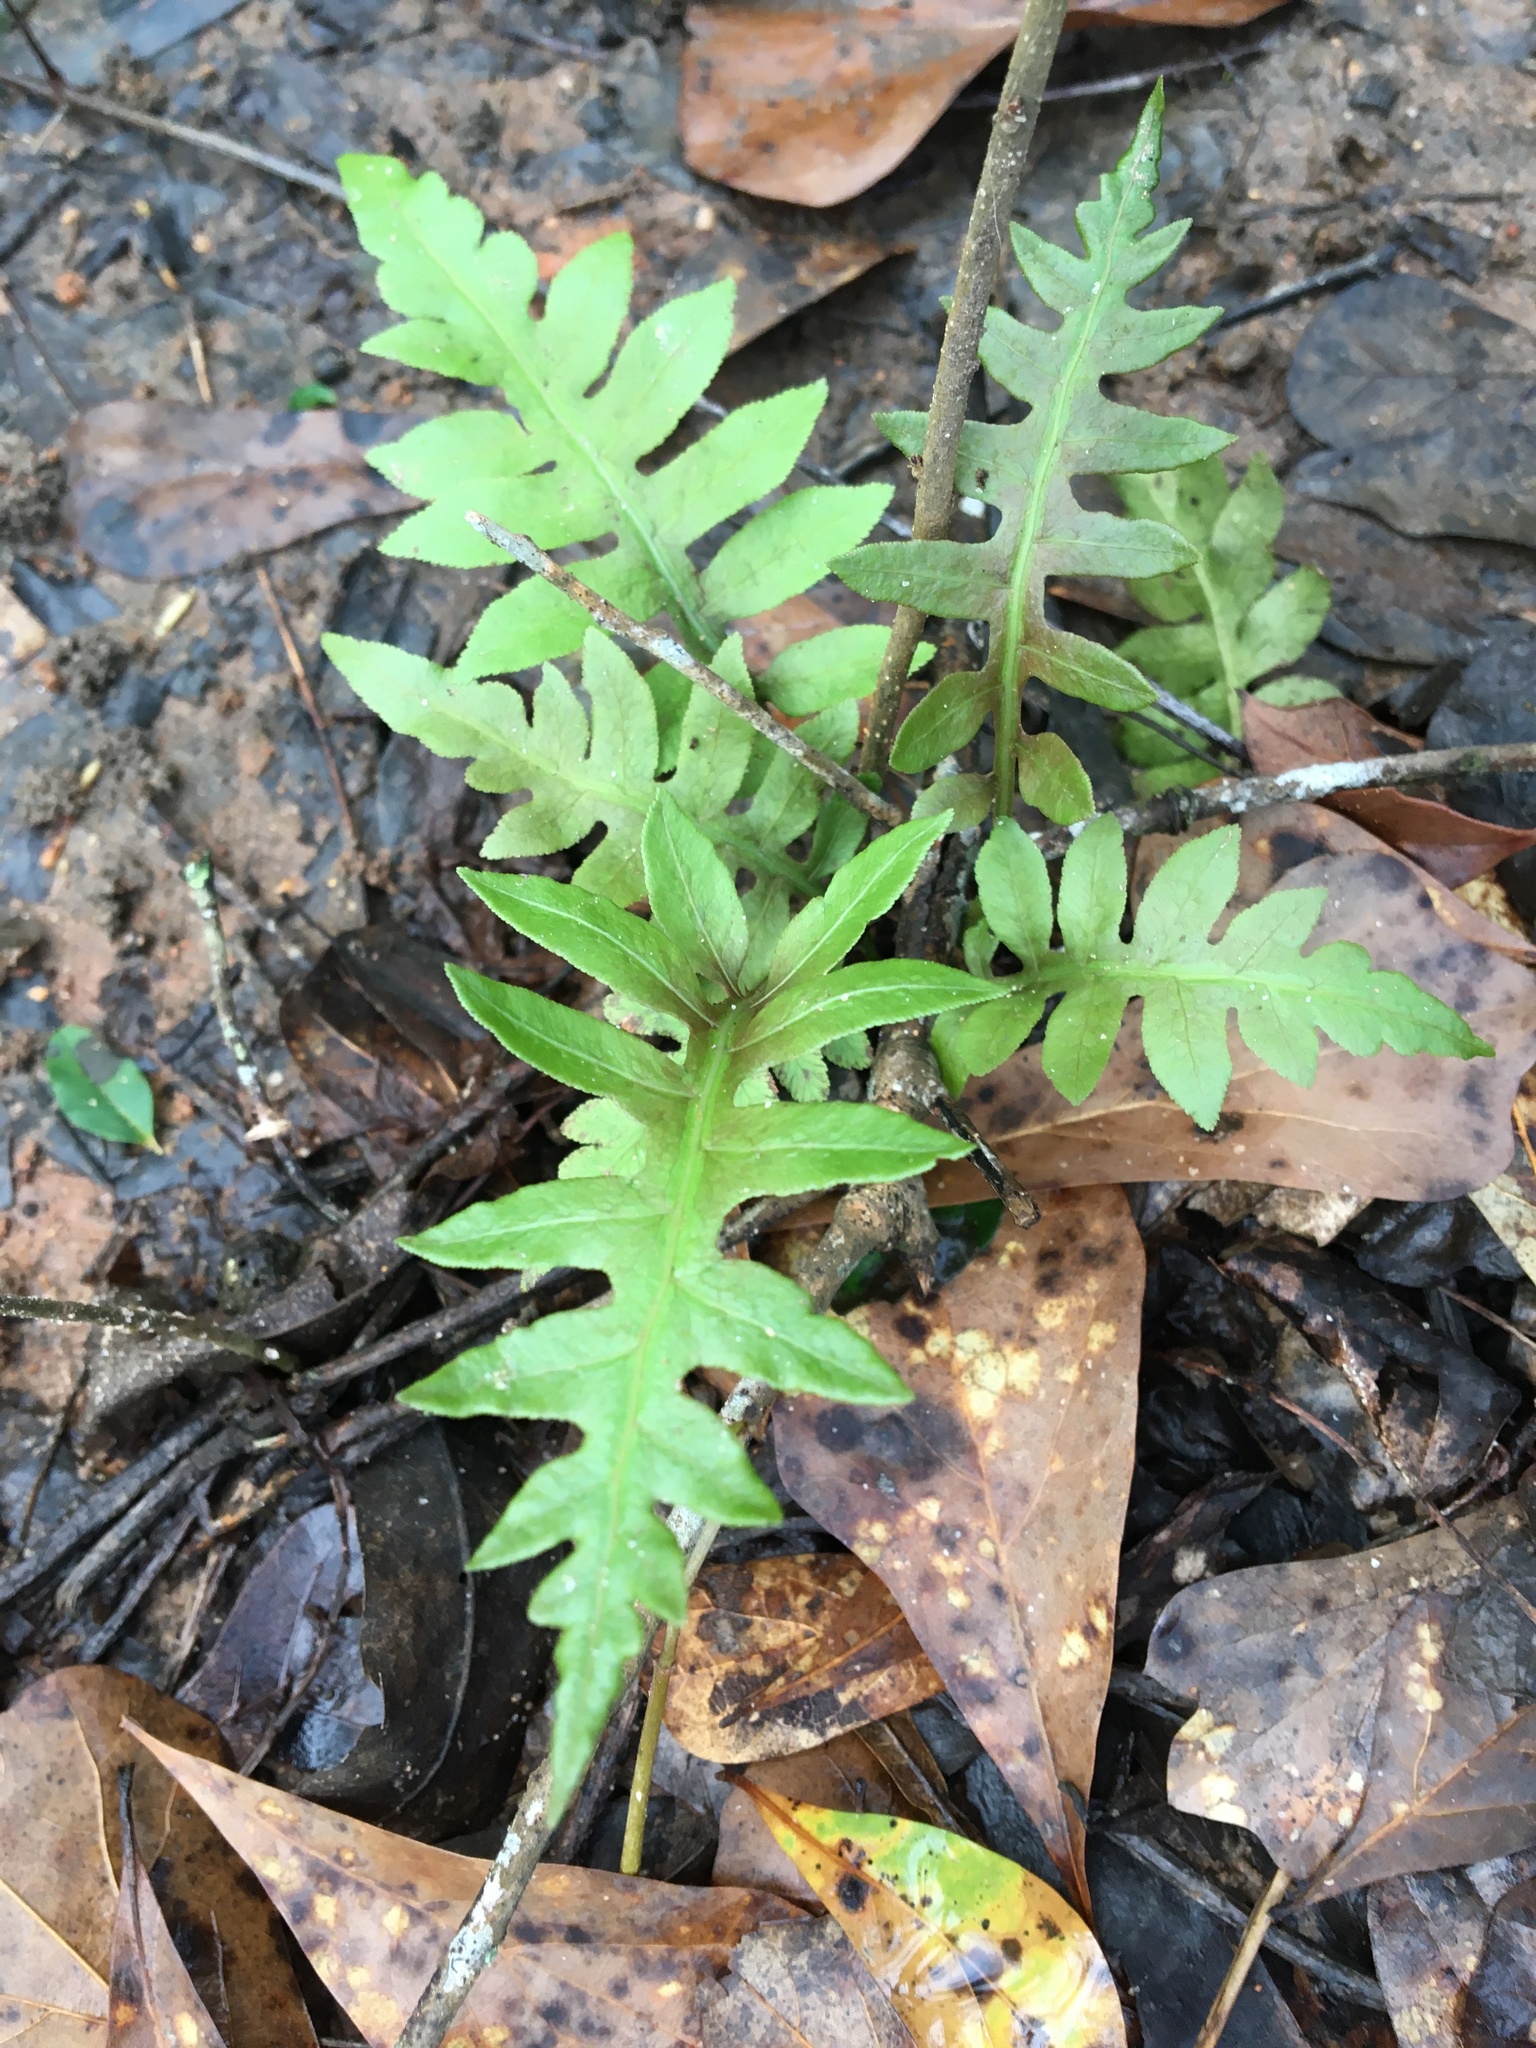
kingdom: Plantae
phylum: Tracheophyta
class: Polypodiopsida
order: Polypodiales
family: Blechnaceae
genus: Lorinseria
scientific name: Lorinseria areolata
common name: Dwarf chain fern
